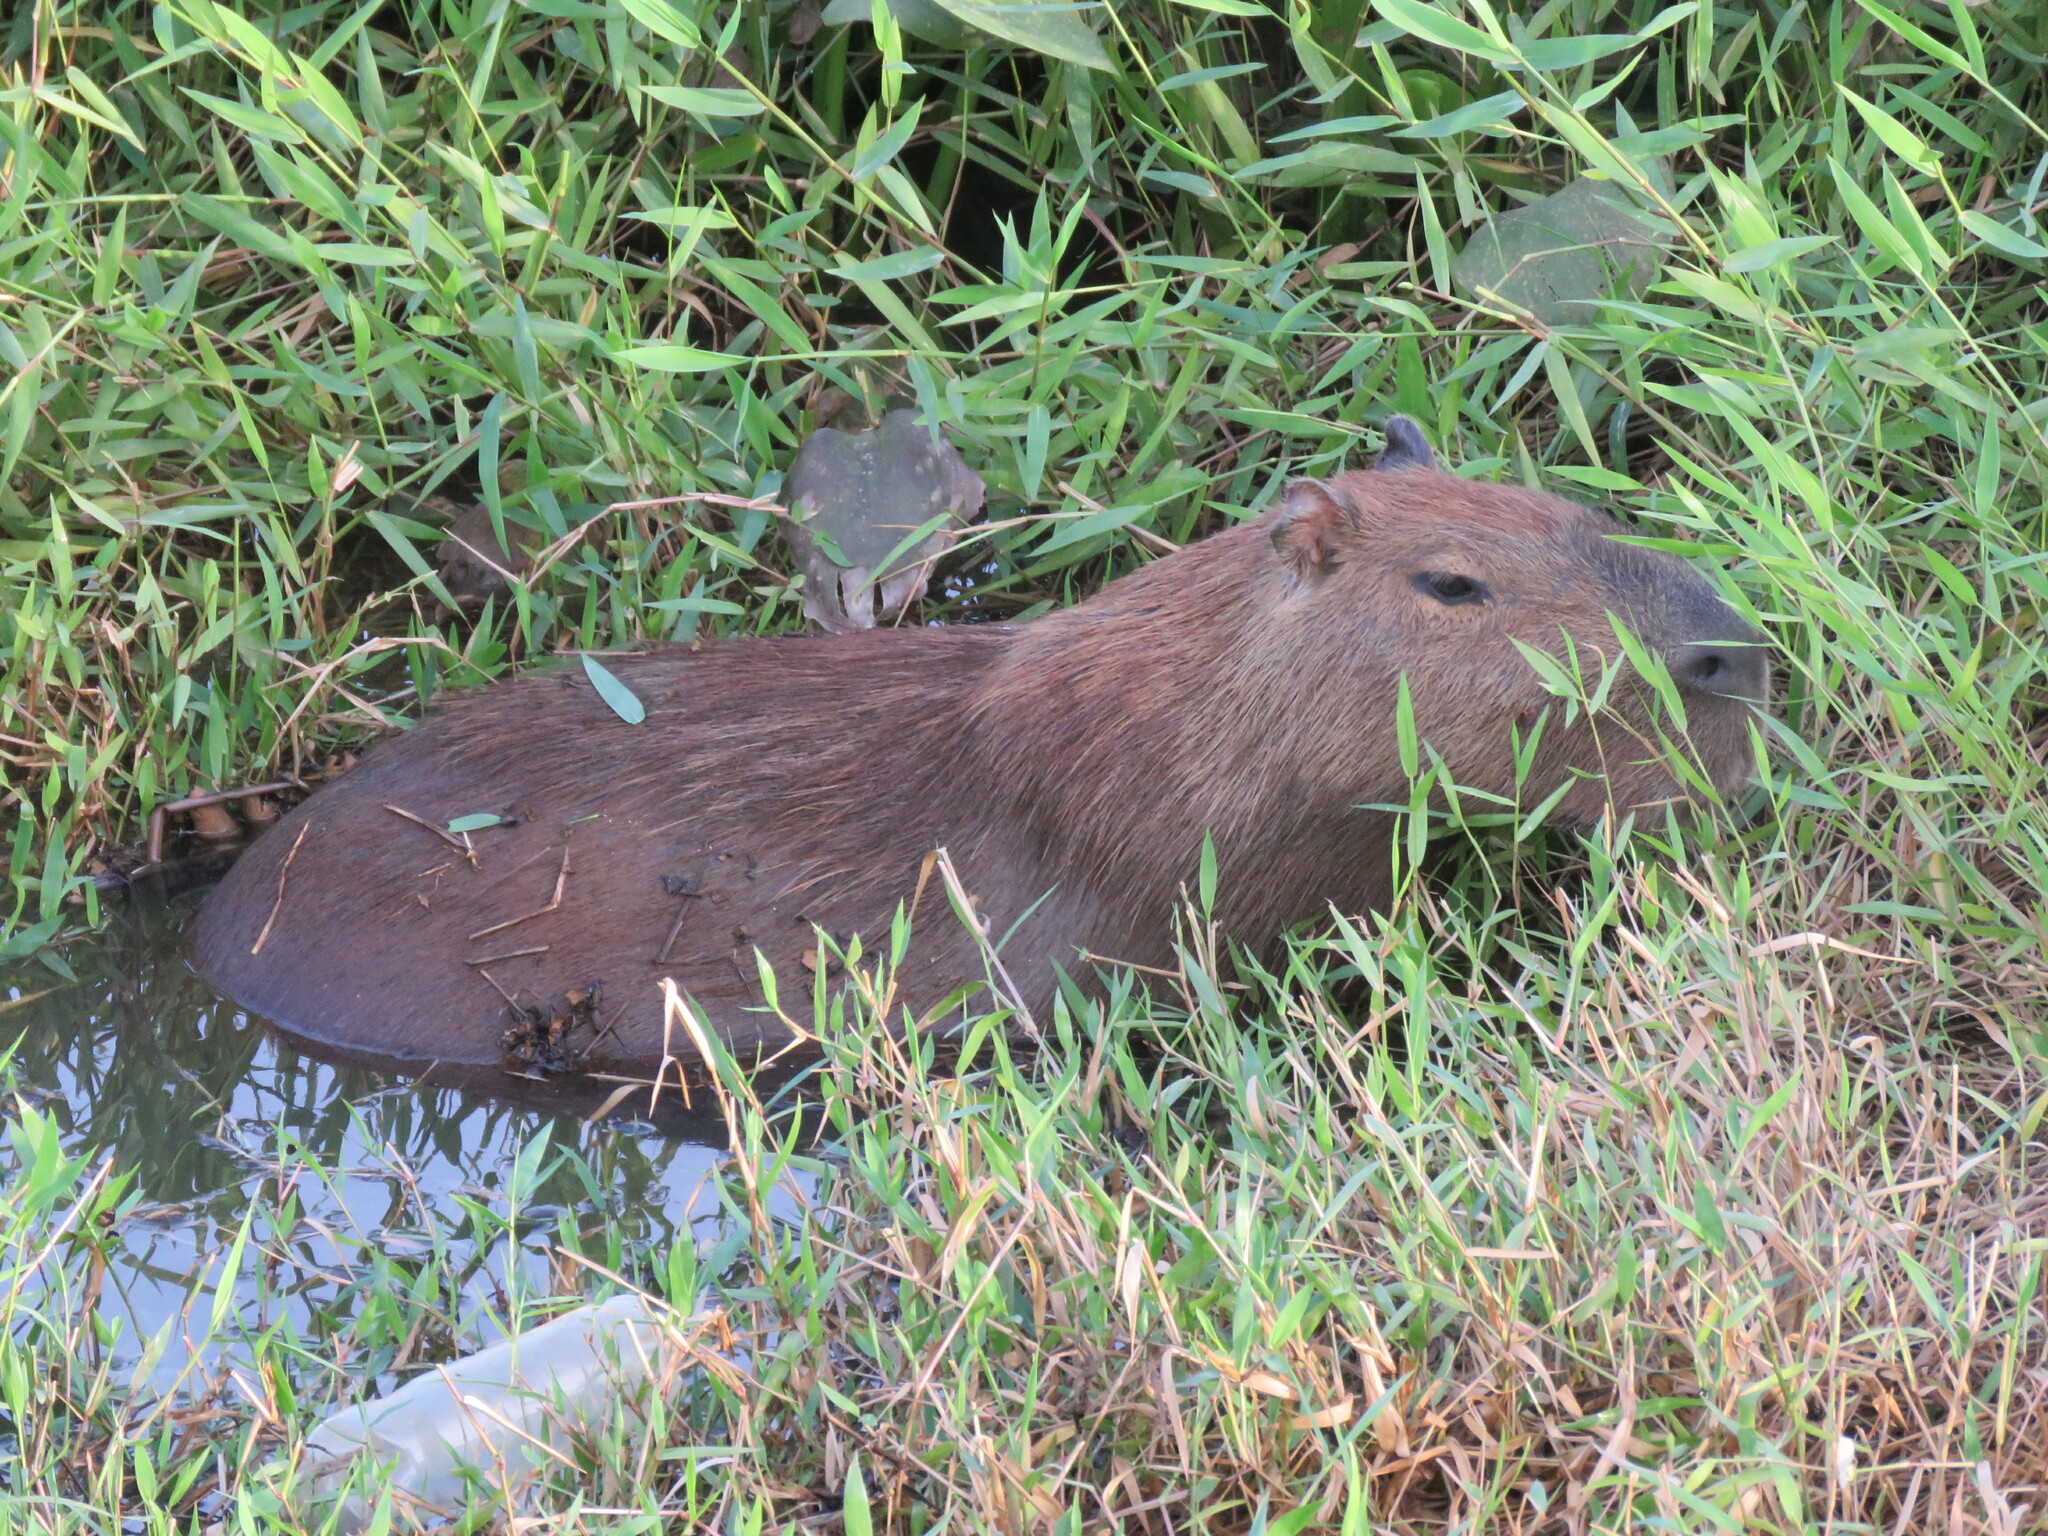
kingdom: Animalia
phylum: Chordata
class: Mammalia
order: Rodentia
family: Caviidae
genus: Hydrochoerus
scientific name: Hydrochoerus hydrochaeris
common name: Capybara
